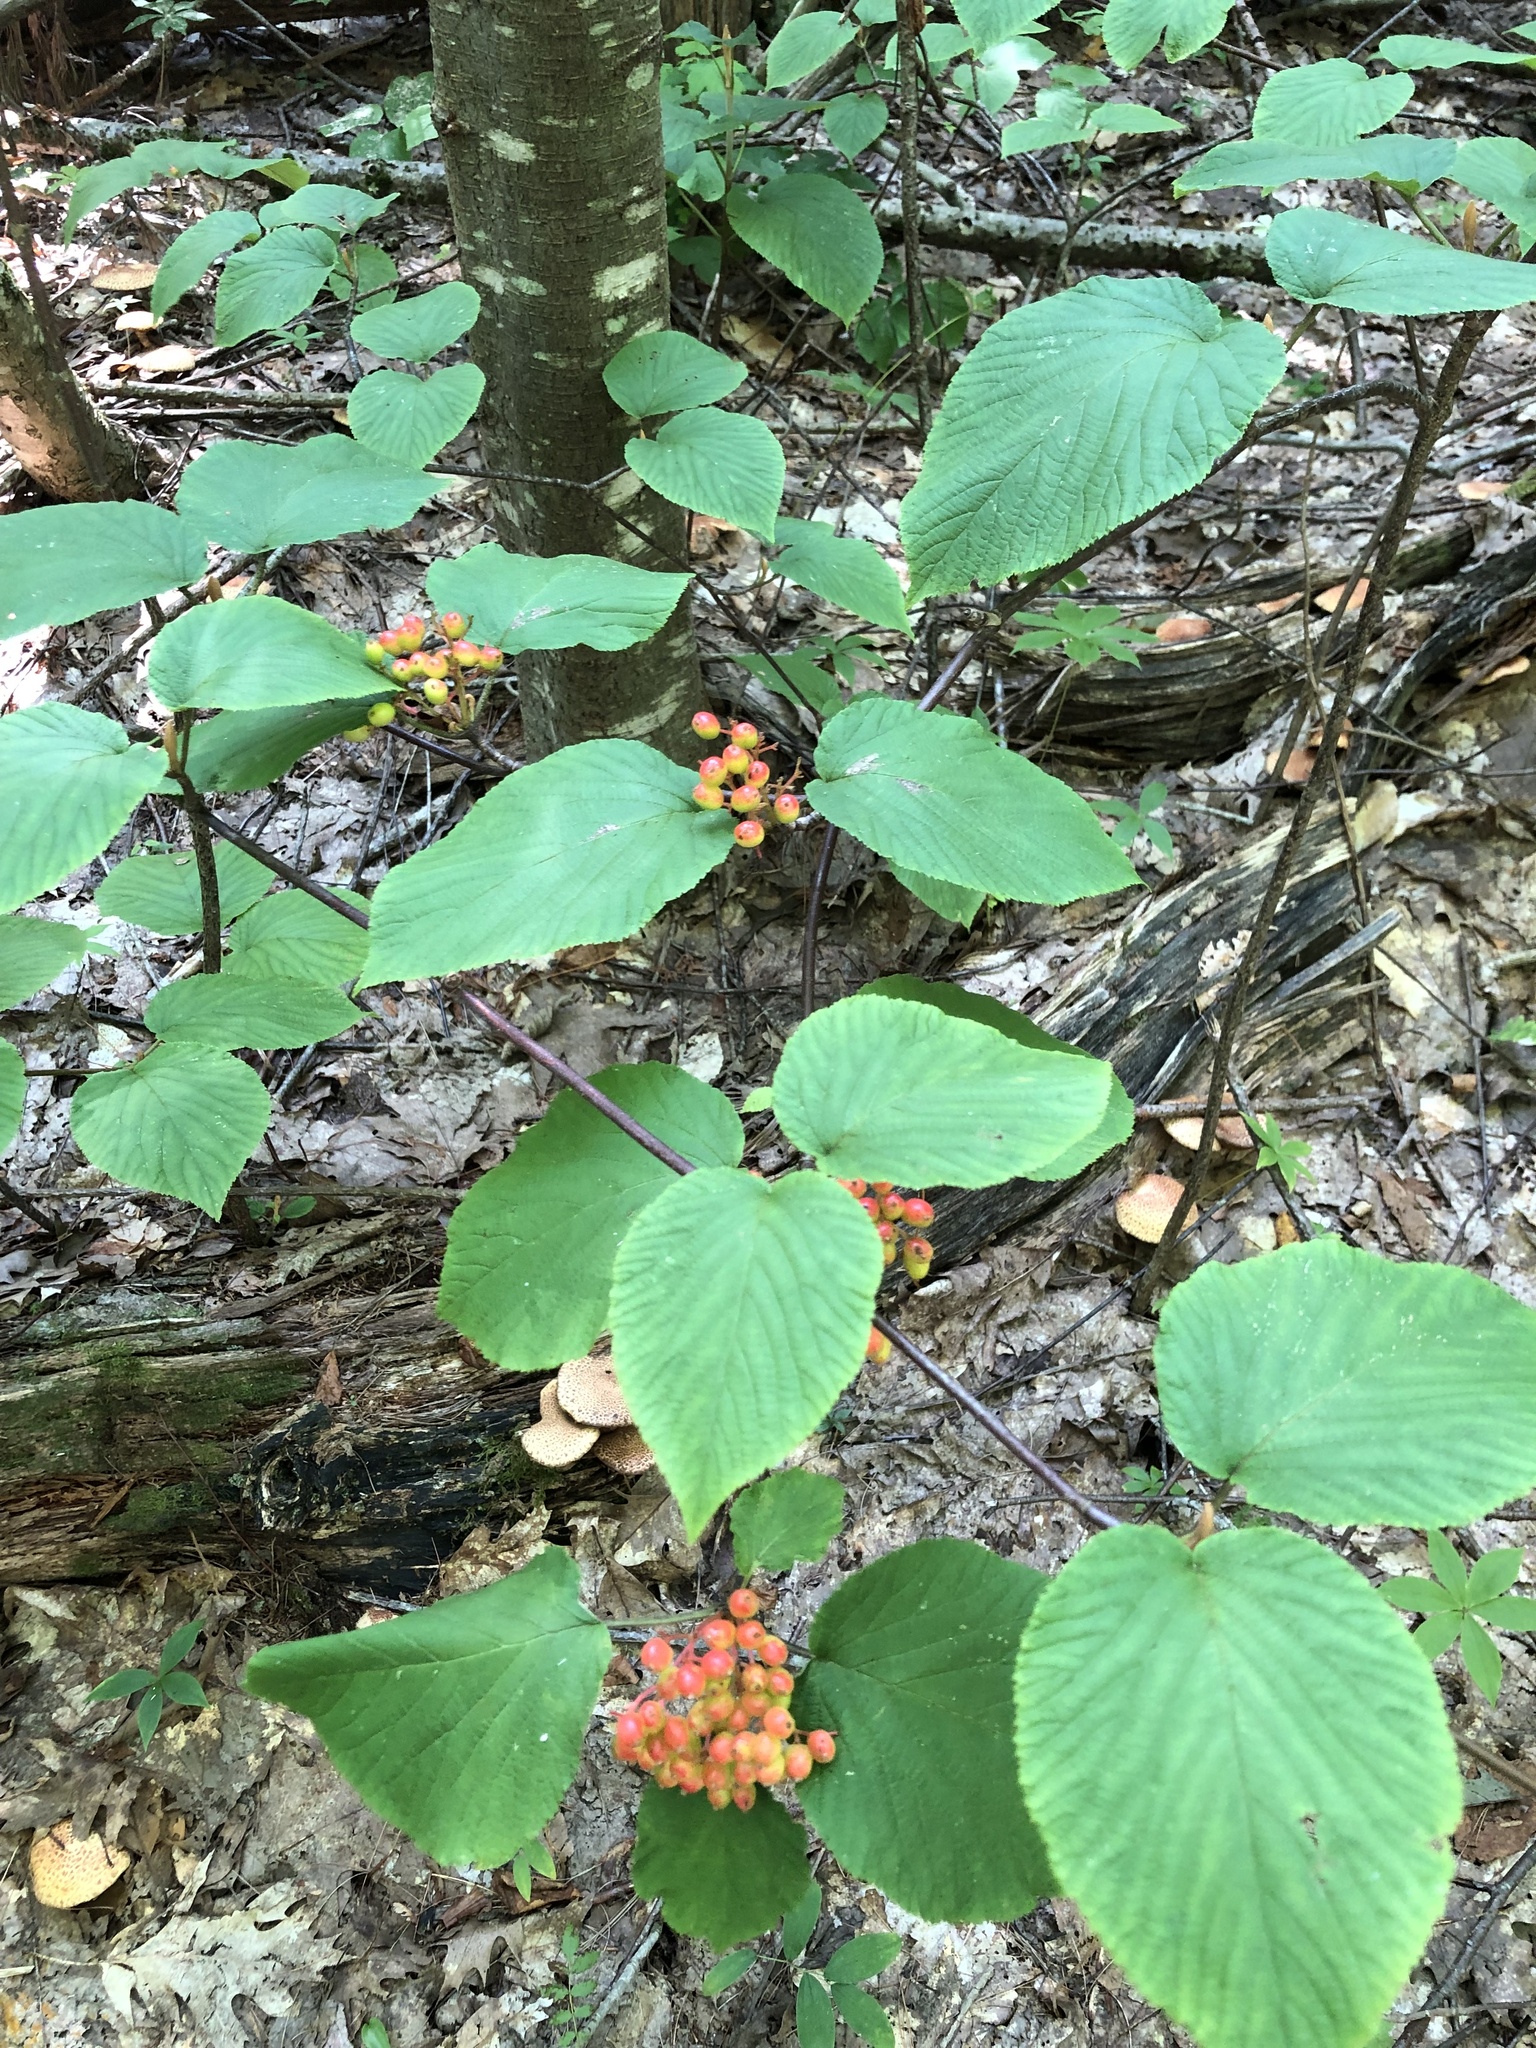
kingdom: Plantae
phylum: Tracheophyta
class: Magnoliopsida
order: Dipsacales
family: Viburnaceae
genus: Viburnum
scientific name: Viburnum lantanoides
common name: Hobblebush
